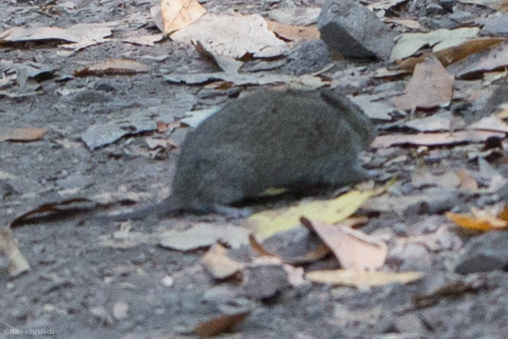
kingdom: Animalia
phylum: Chordata
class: Mammalia
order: Rodentia
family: Cricetidae
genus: Microtus
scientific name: Microtus californicus
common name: California vole
